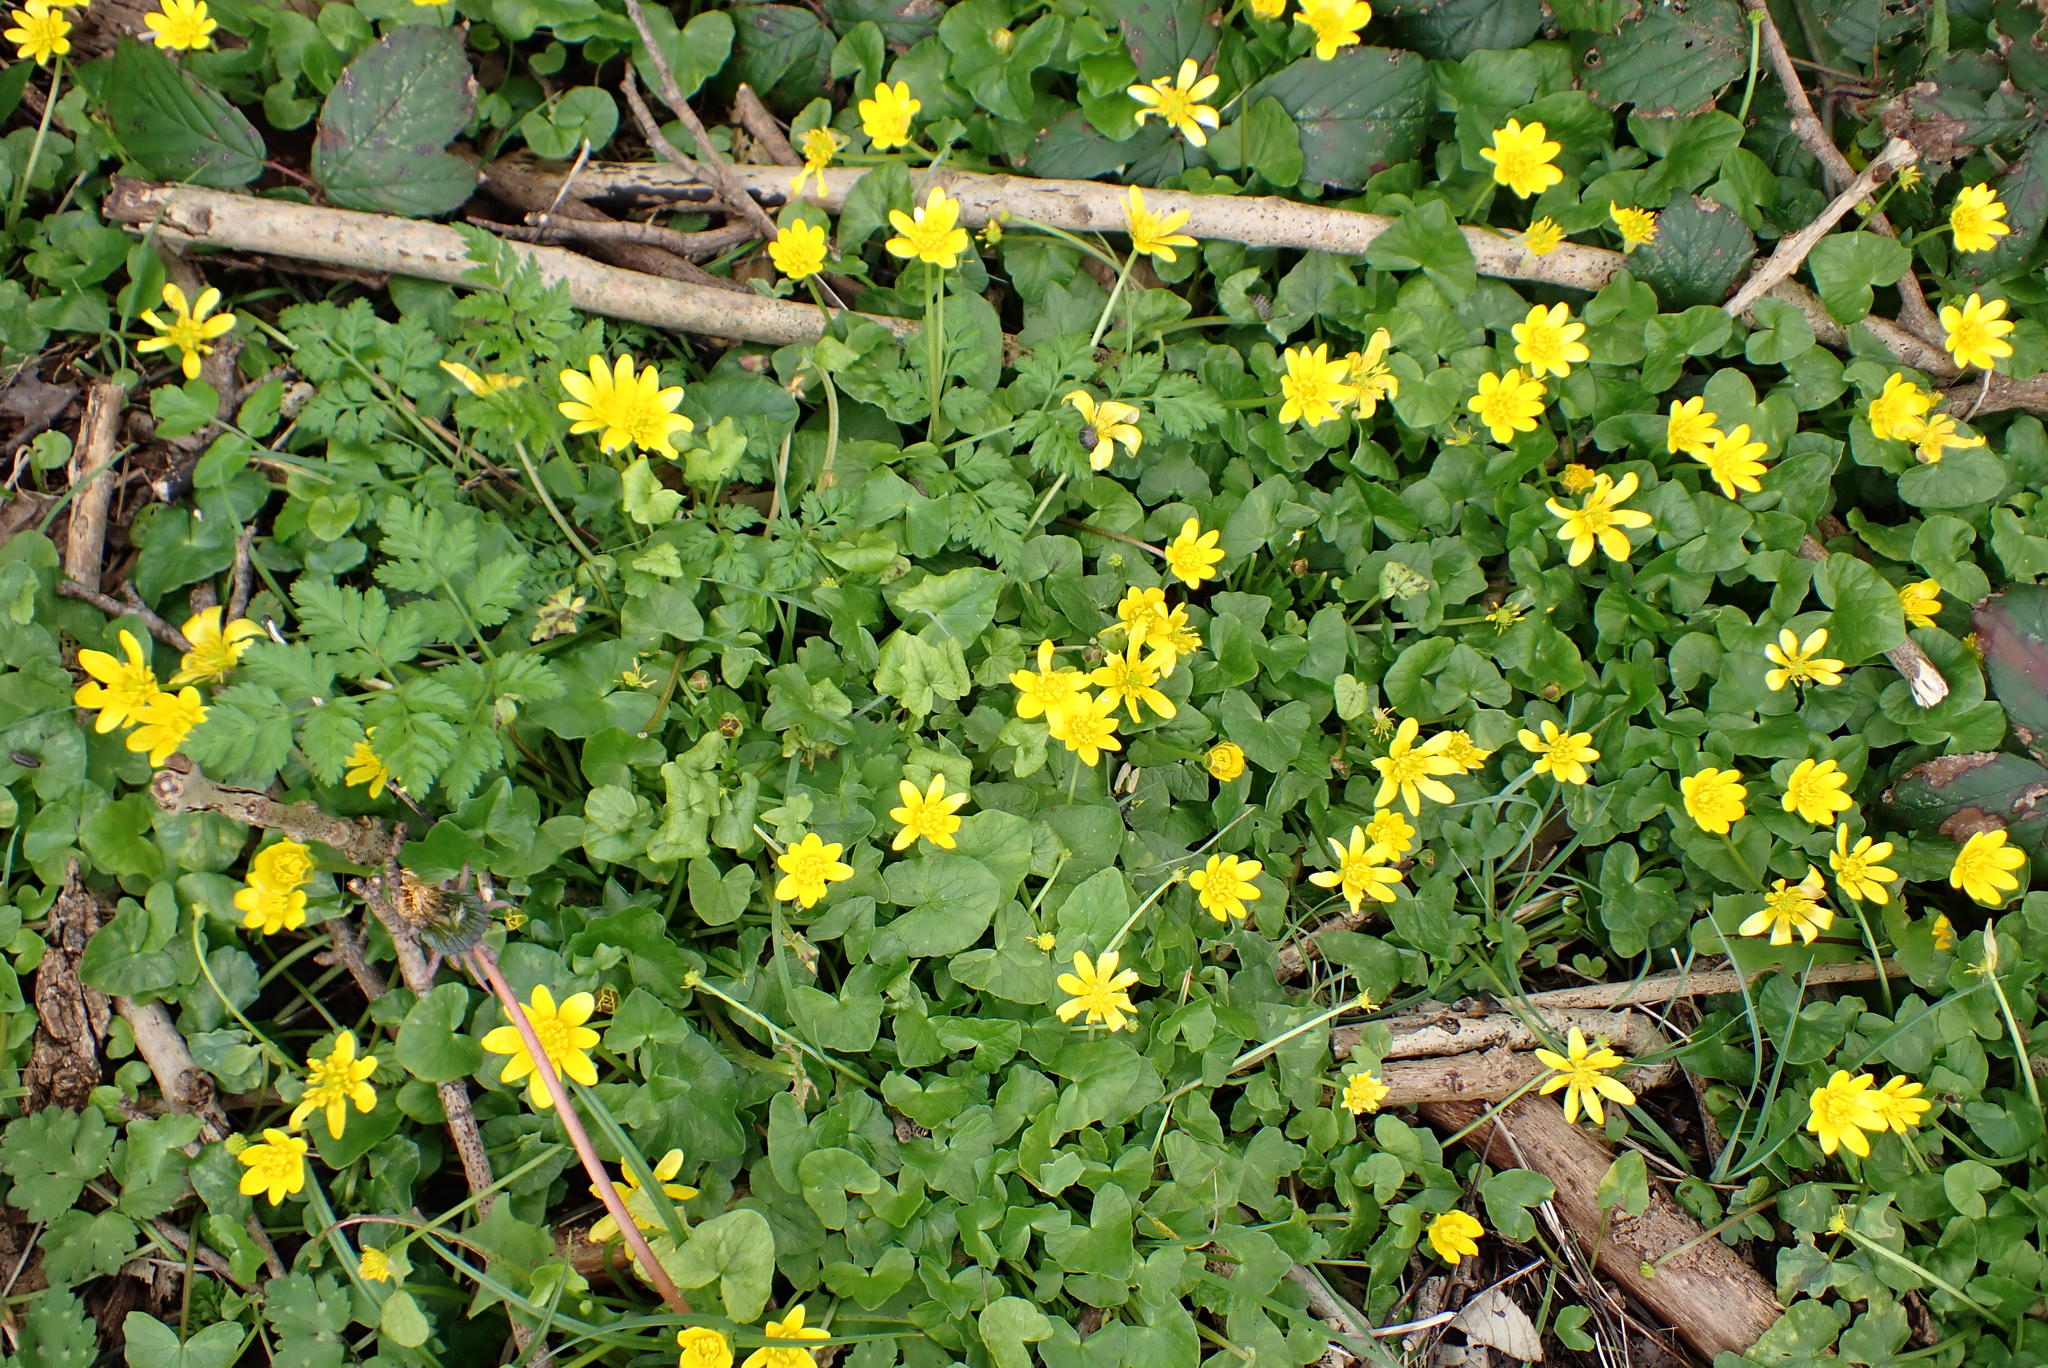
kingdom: Plantae
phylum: Tracheophyta
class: Magnoliopsida
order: Ranunculales
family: Ranunculaceae
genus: Ficaria
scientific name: Ficaria verna
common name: Lesser celandine
